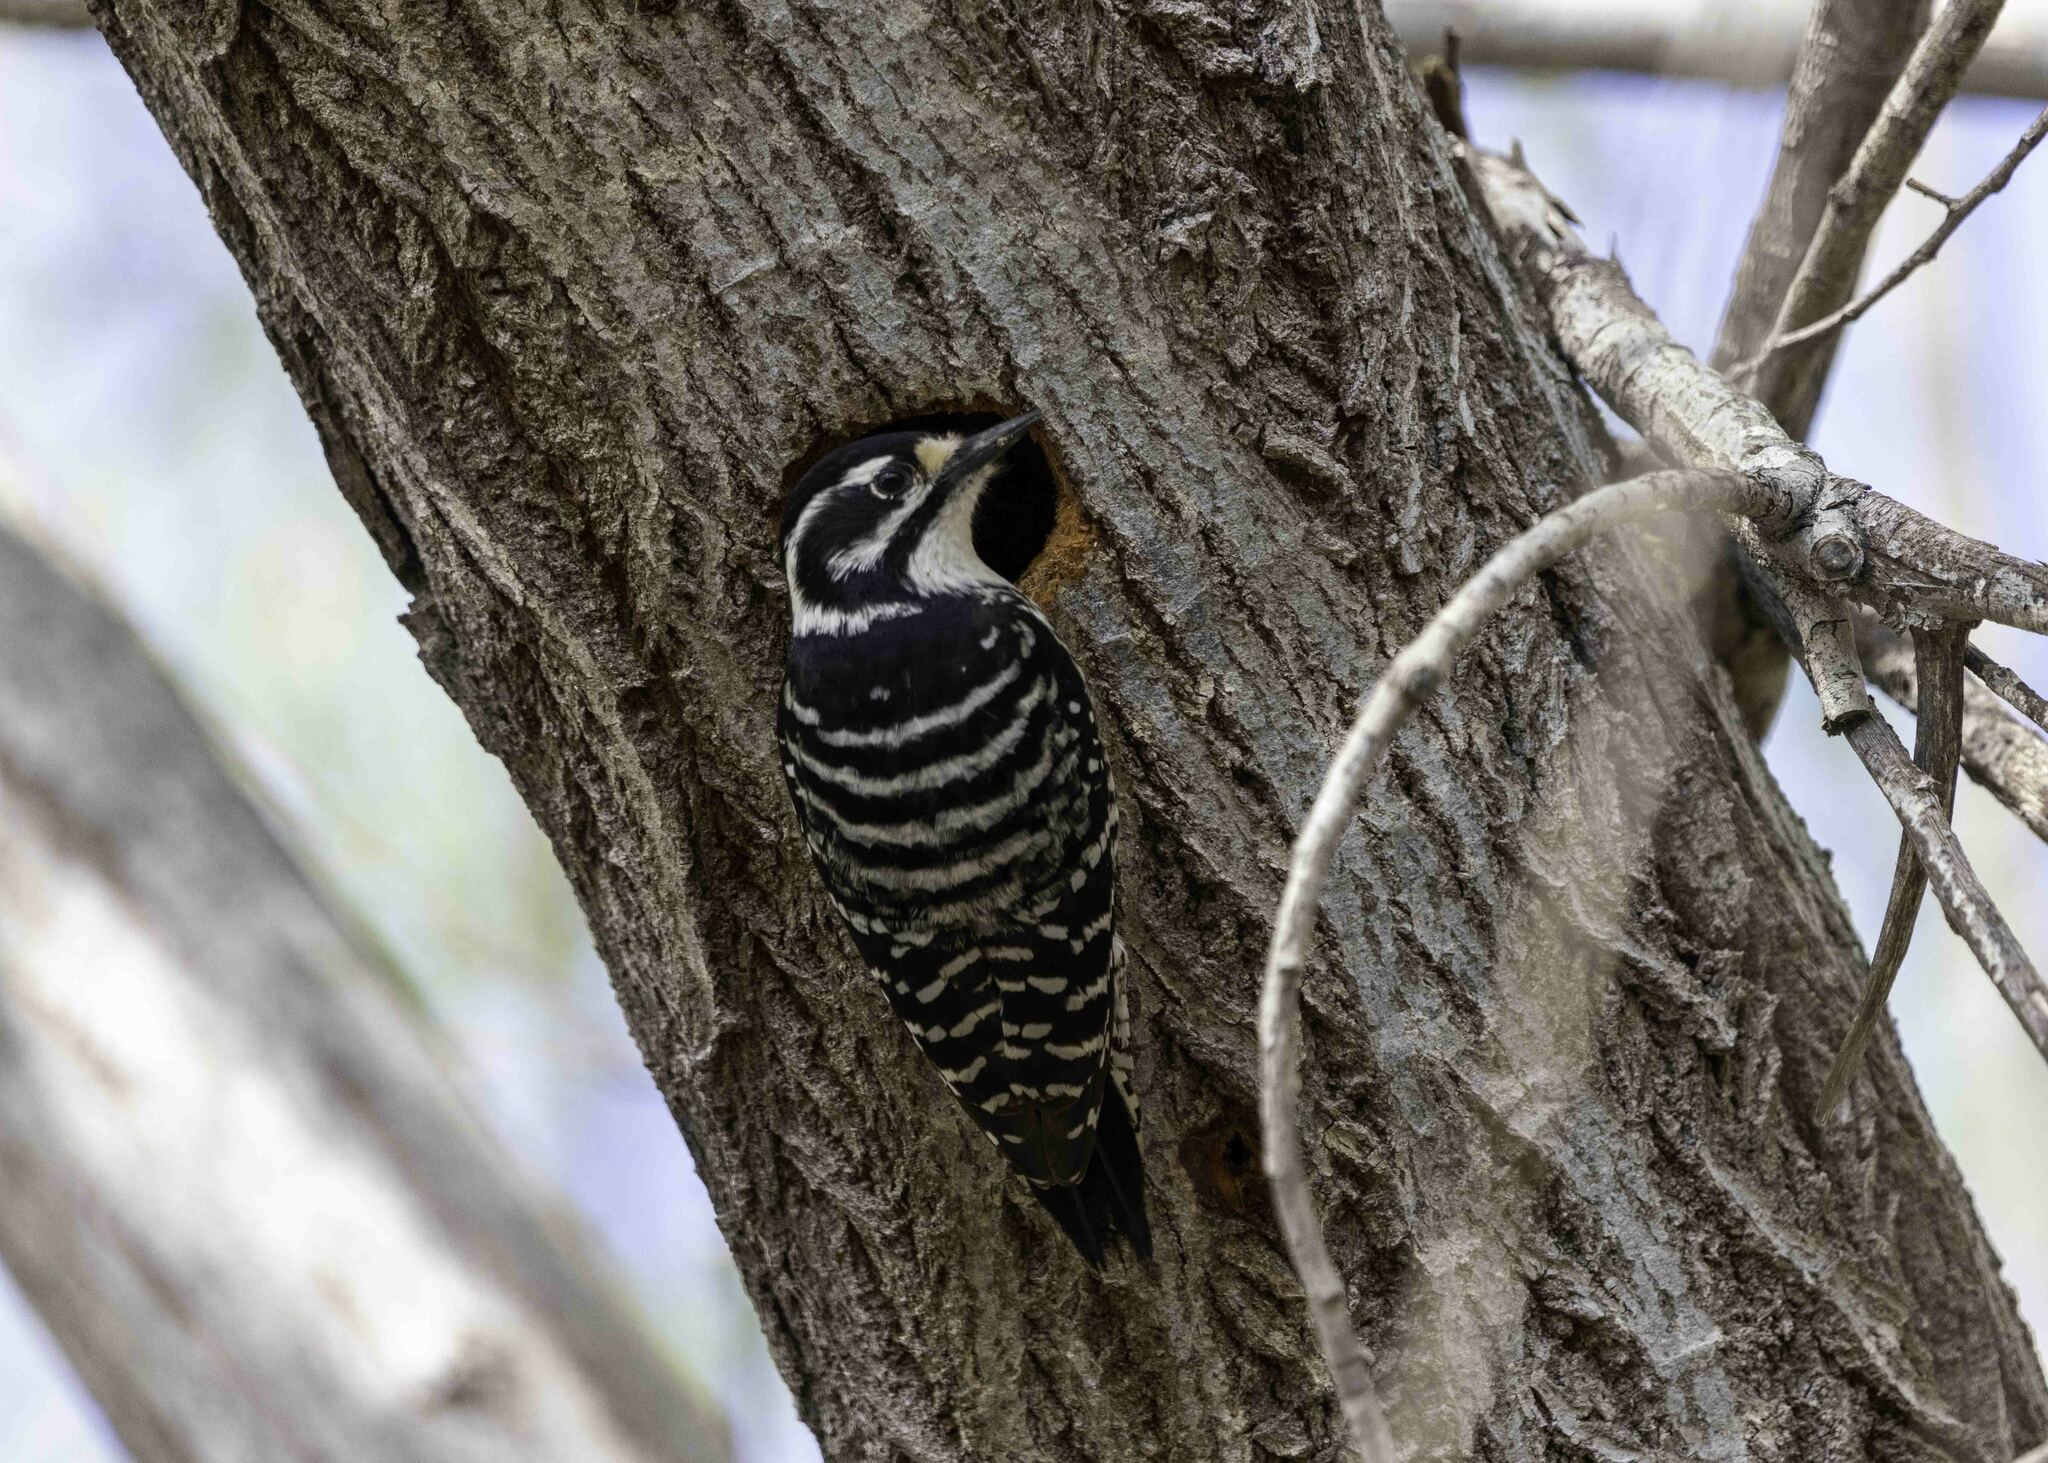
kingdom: Animalia
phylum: Chordata
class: Aves
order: Piciformes
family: Picidae
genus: Dryobates
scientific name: Dryobates nuttallii
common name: Nuttall's woodpecker
